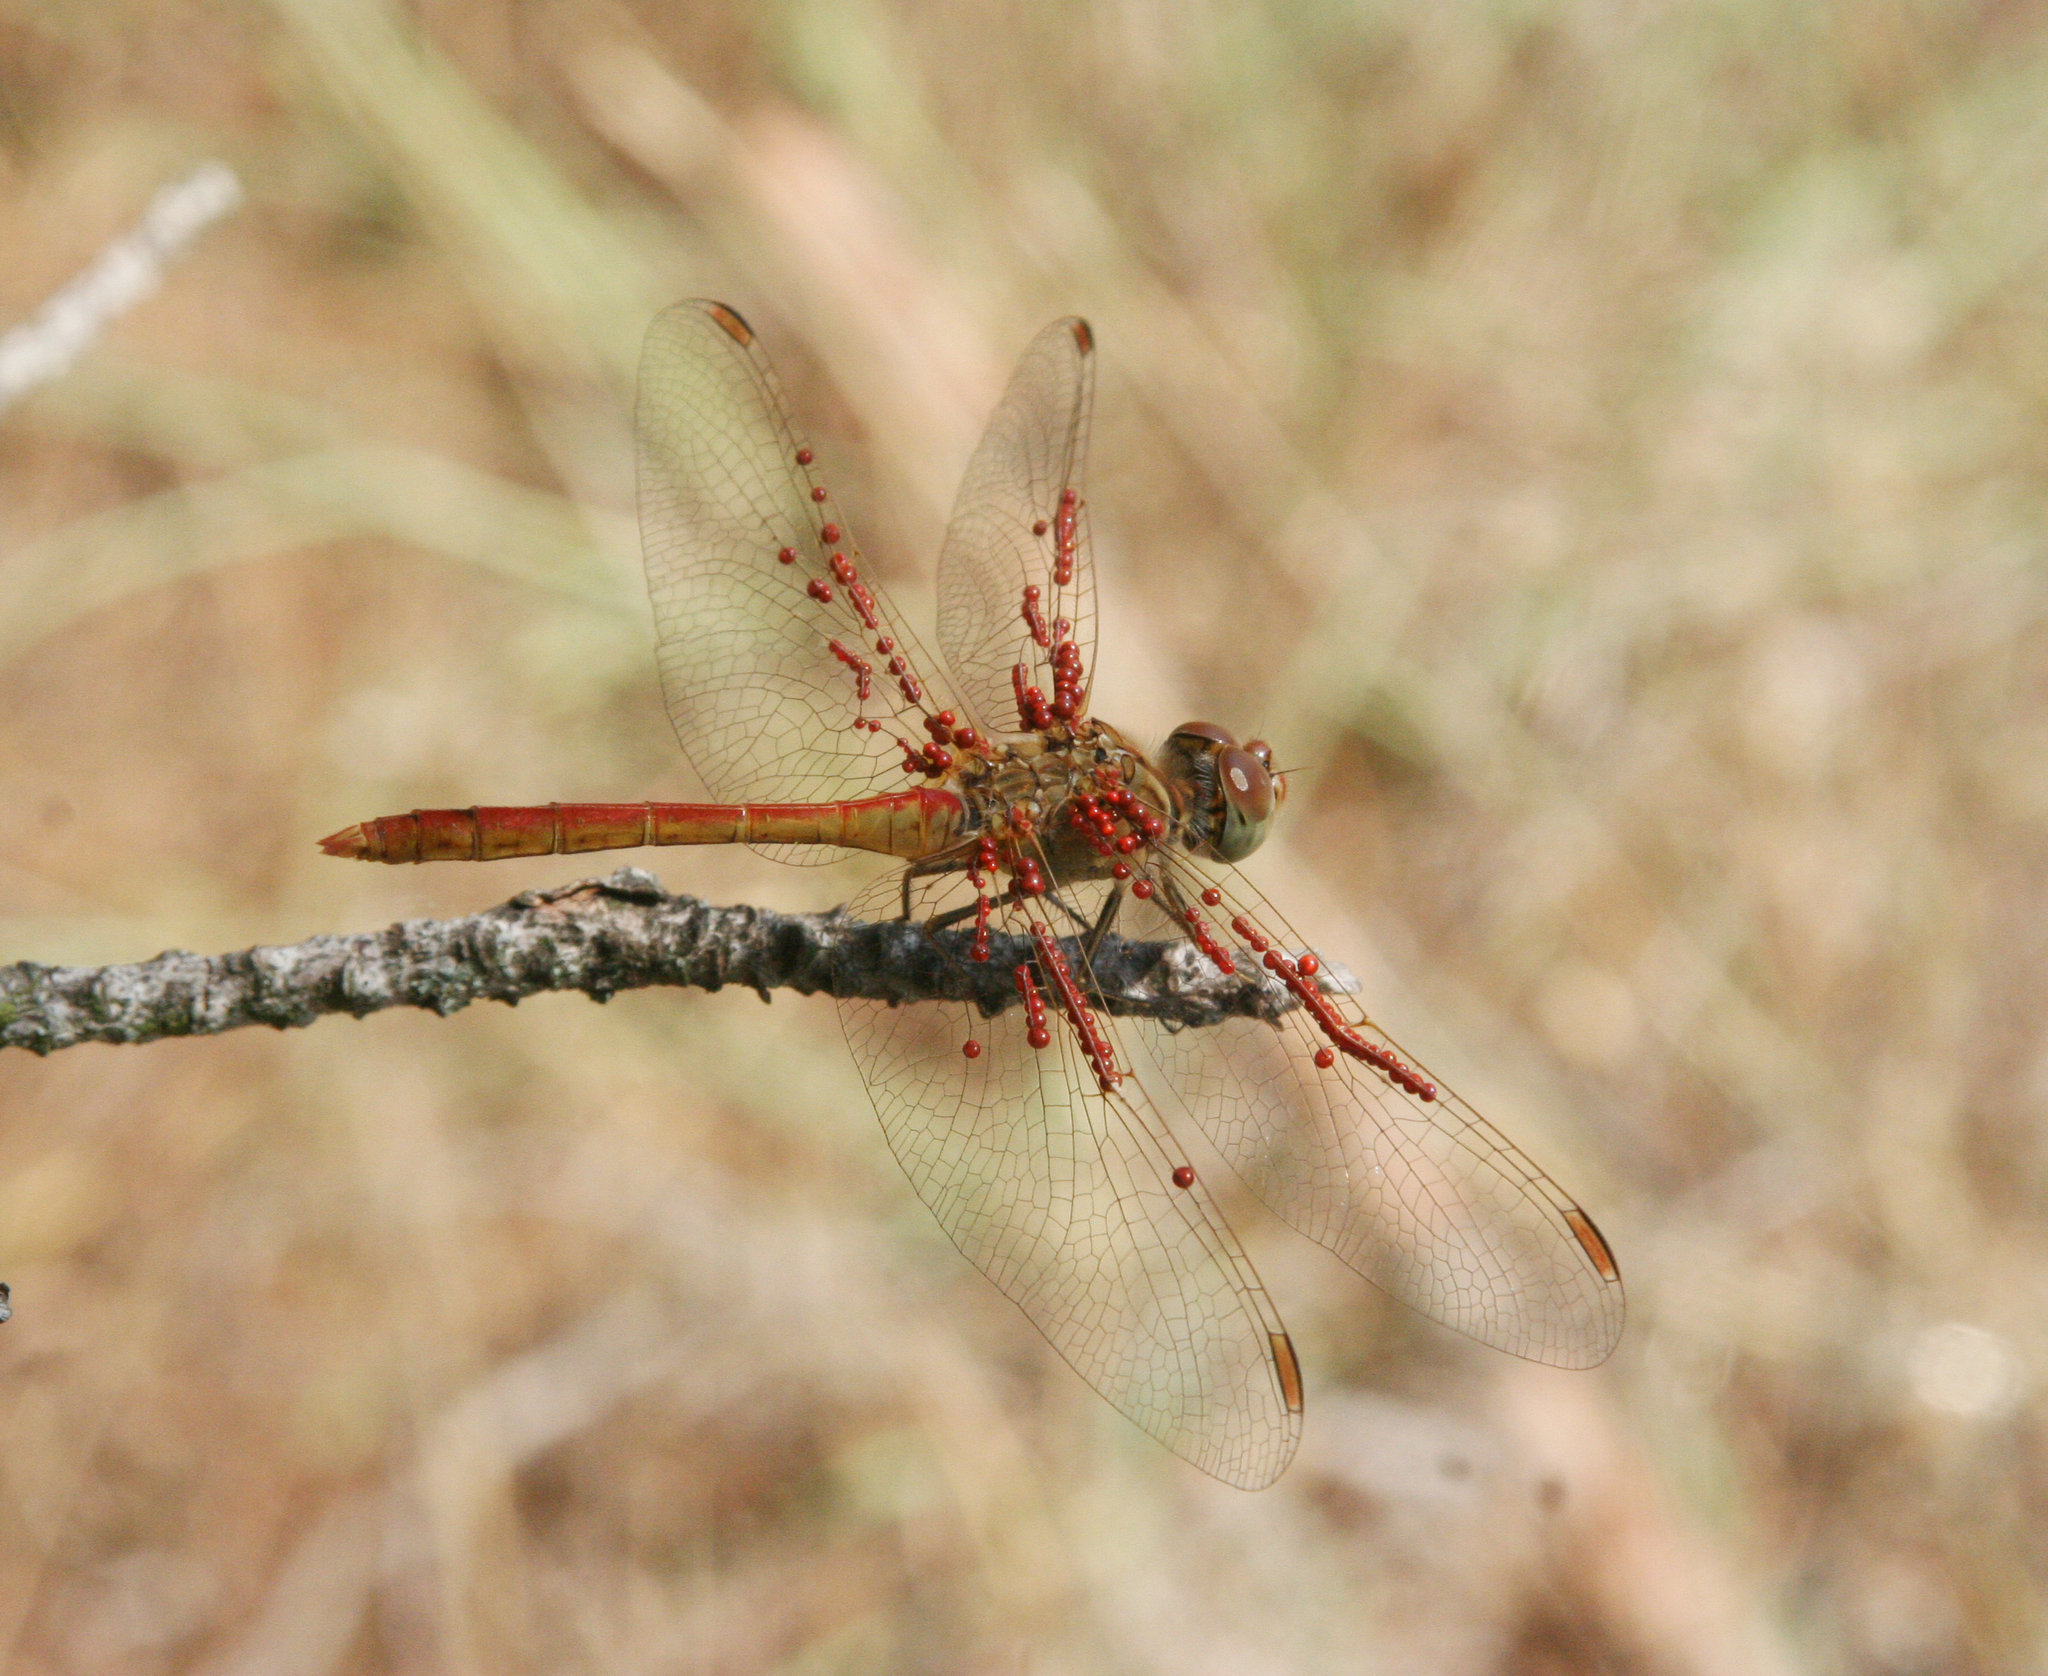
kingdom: Animalia
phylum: Arthropoda
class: Insecta
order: Odonata
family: Libellulidae
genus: Sympetrum
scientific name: Sympetrum meridionale
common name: Southern darter
